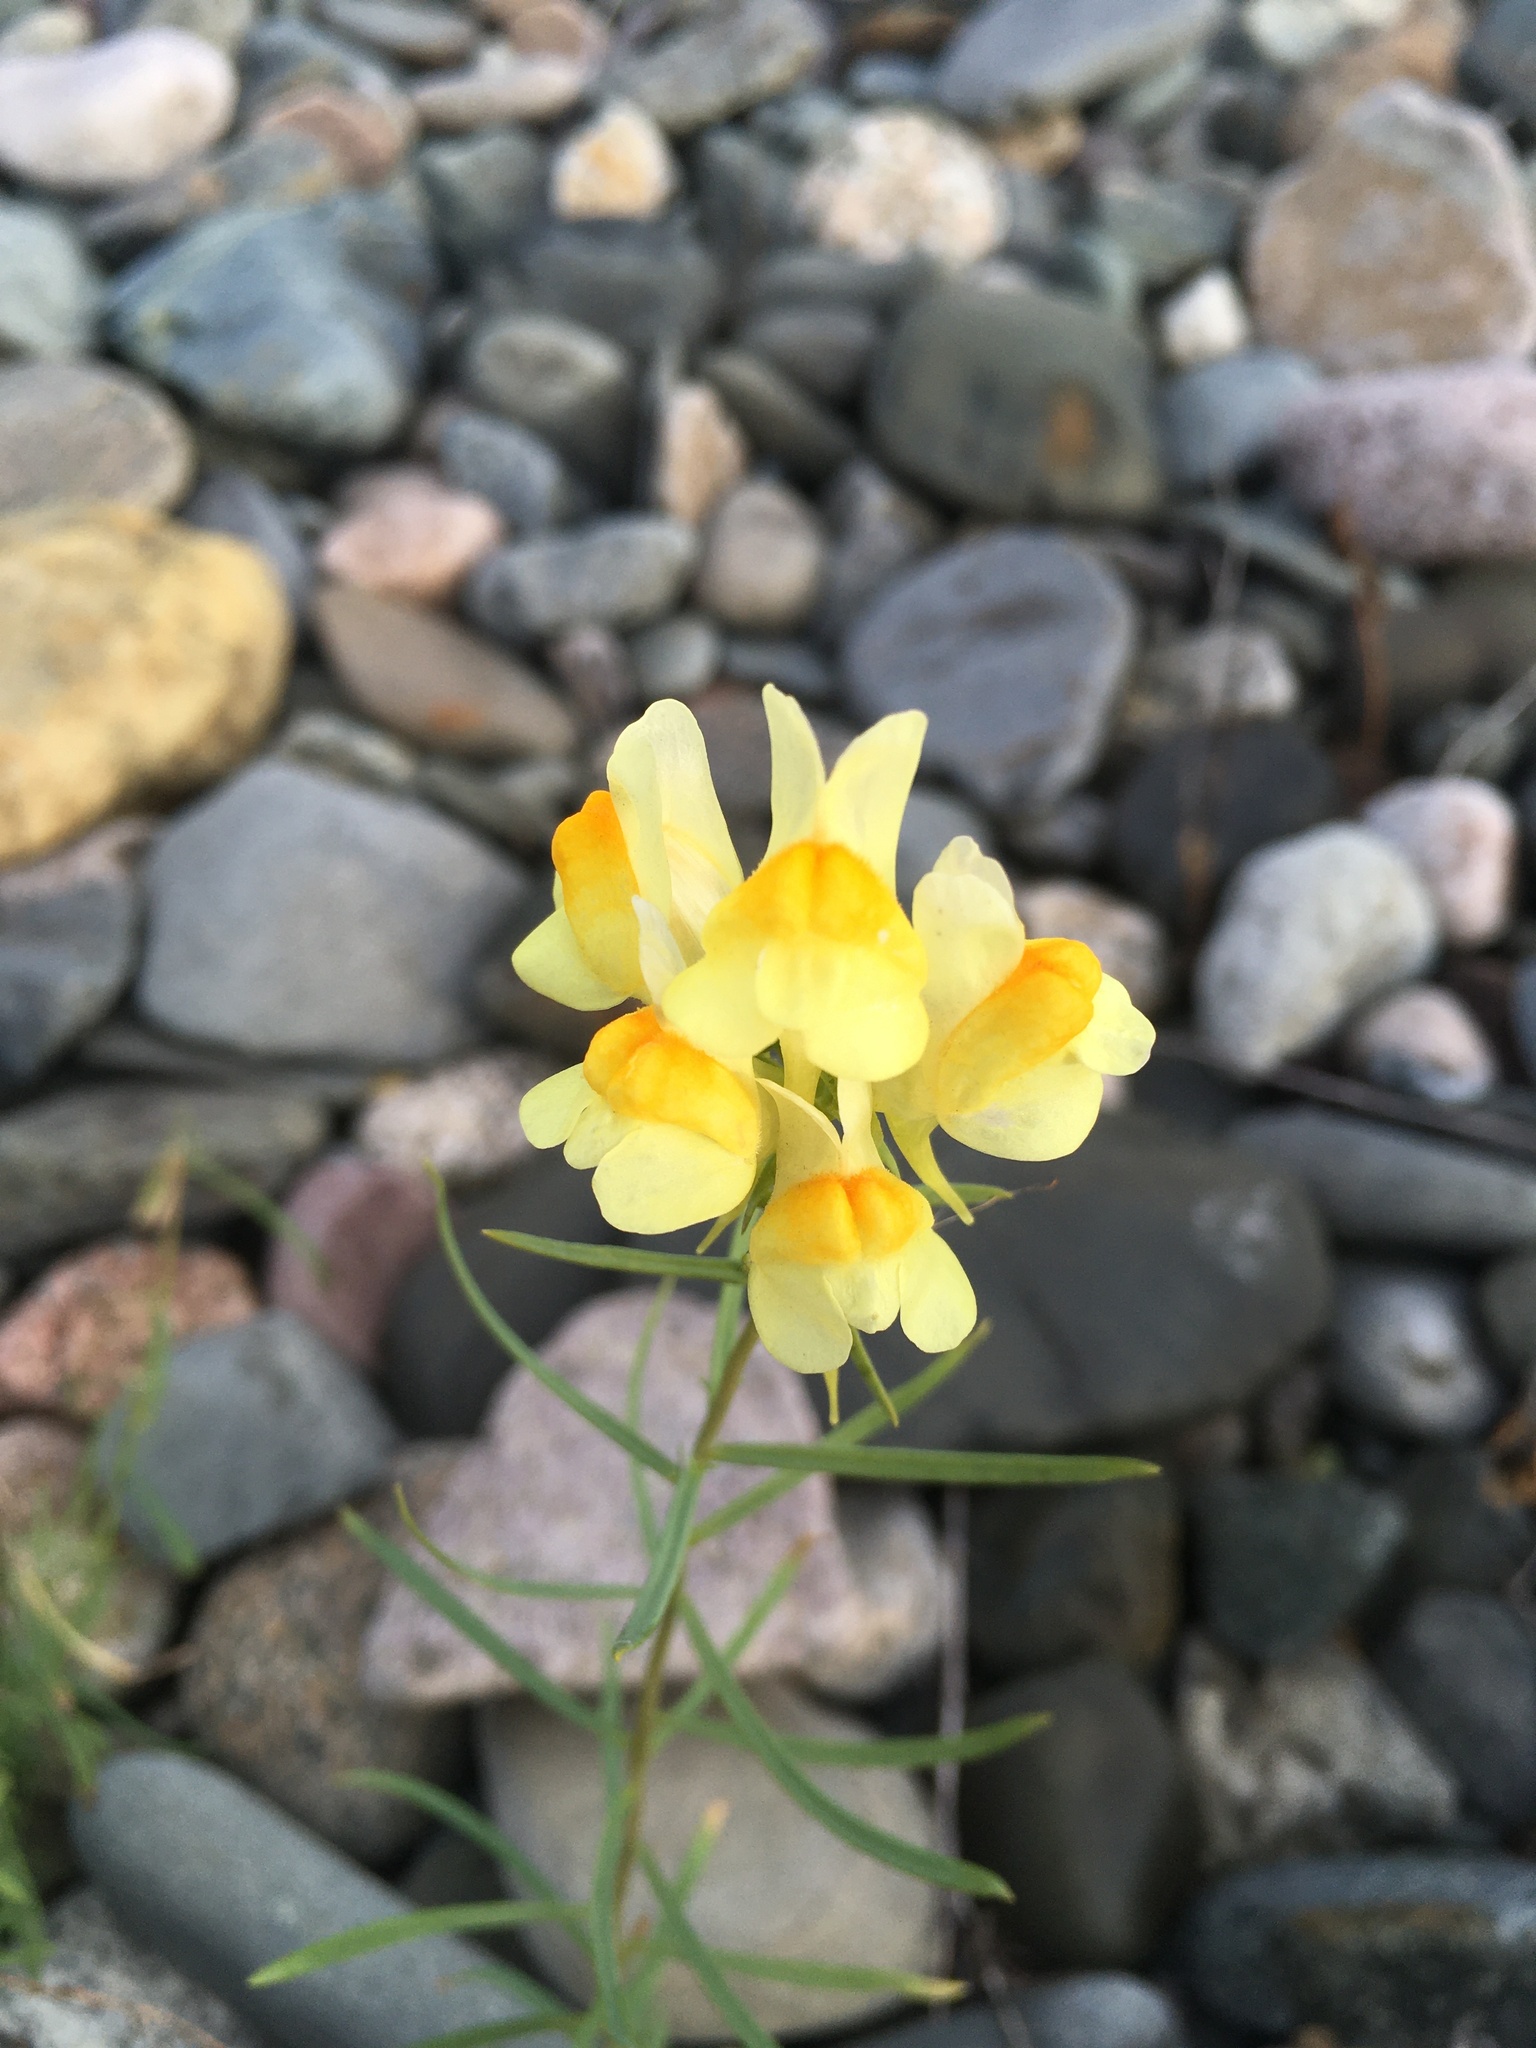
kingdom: Plantae
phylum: Tracheophyta
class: Magnoliopsida
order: Lamiales
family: Plantaginaceae
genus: Linaria
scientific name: Linaria vulgaris
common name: Butter and eggs
